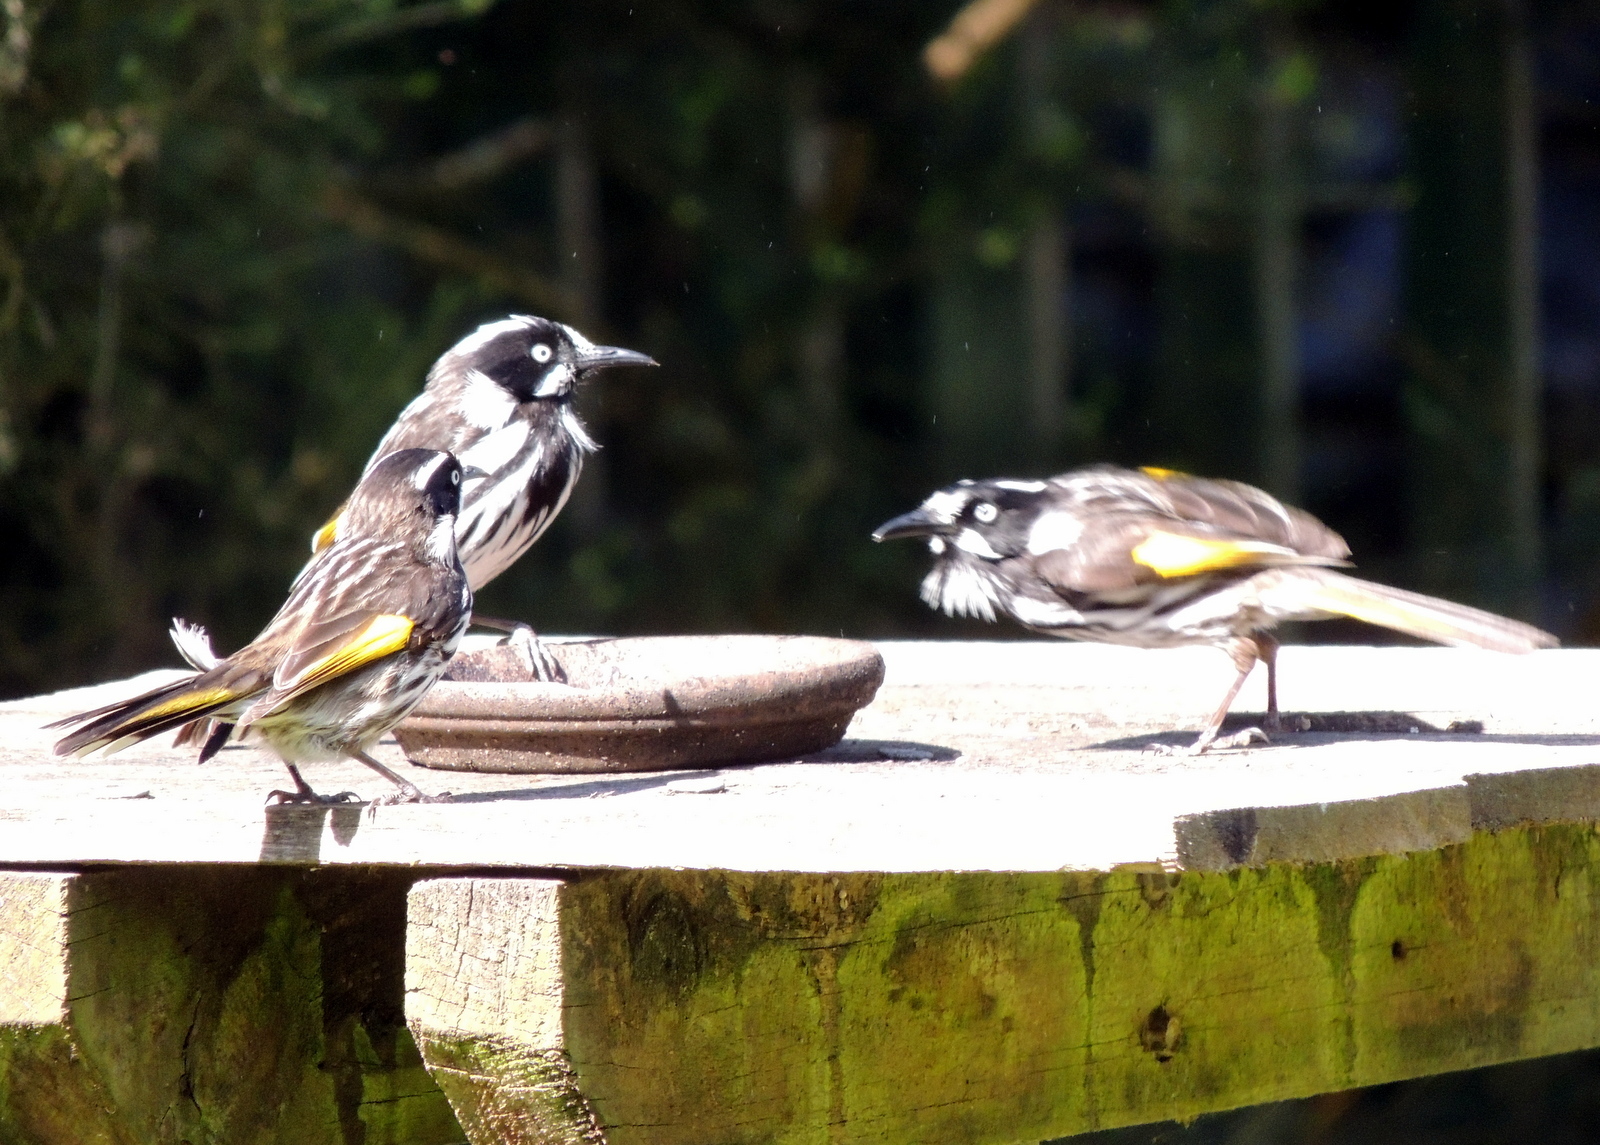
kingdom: Animalia
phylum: Chordata
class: Aves
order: Passeriformes
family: Meliphagidae
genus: Phylidonyris
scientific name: Phylidonyris novaehollandiae
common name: New holland honeyeater
